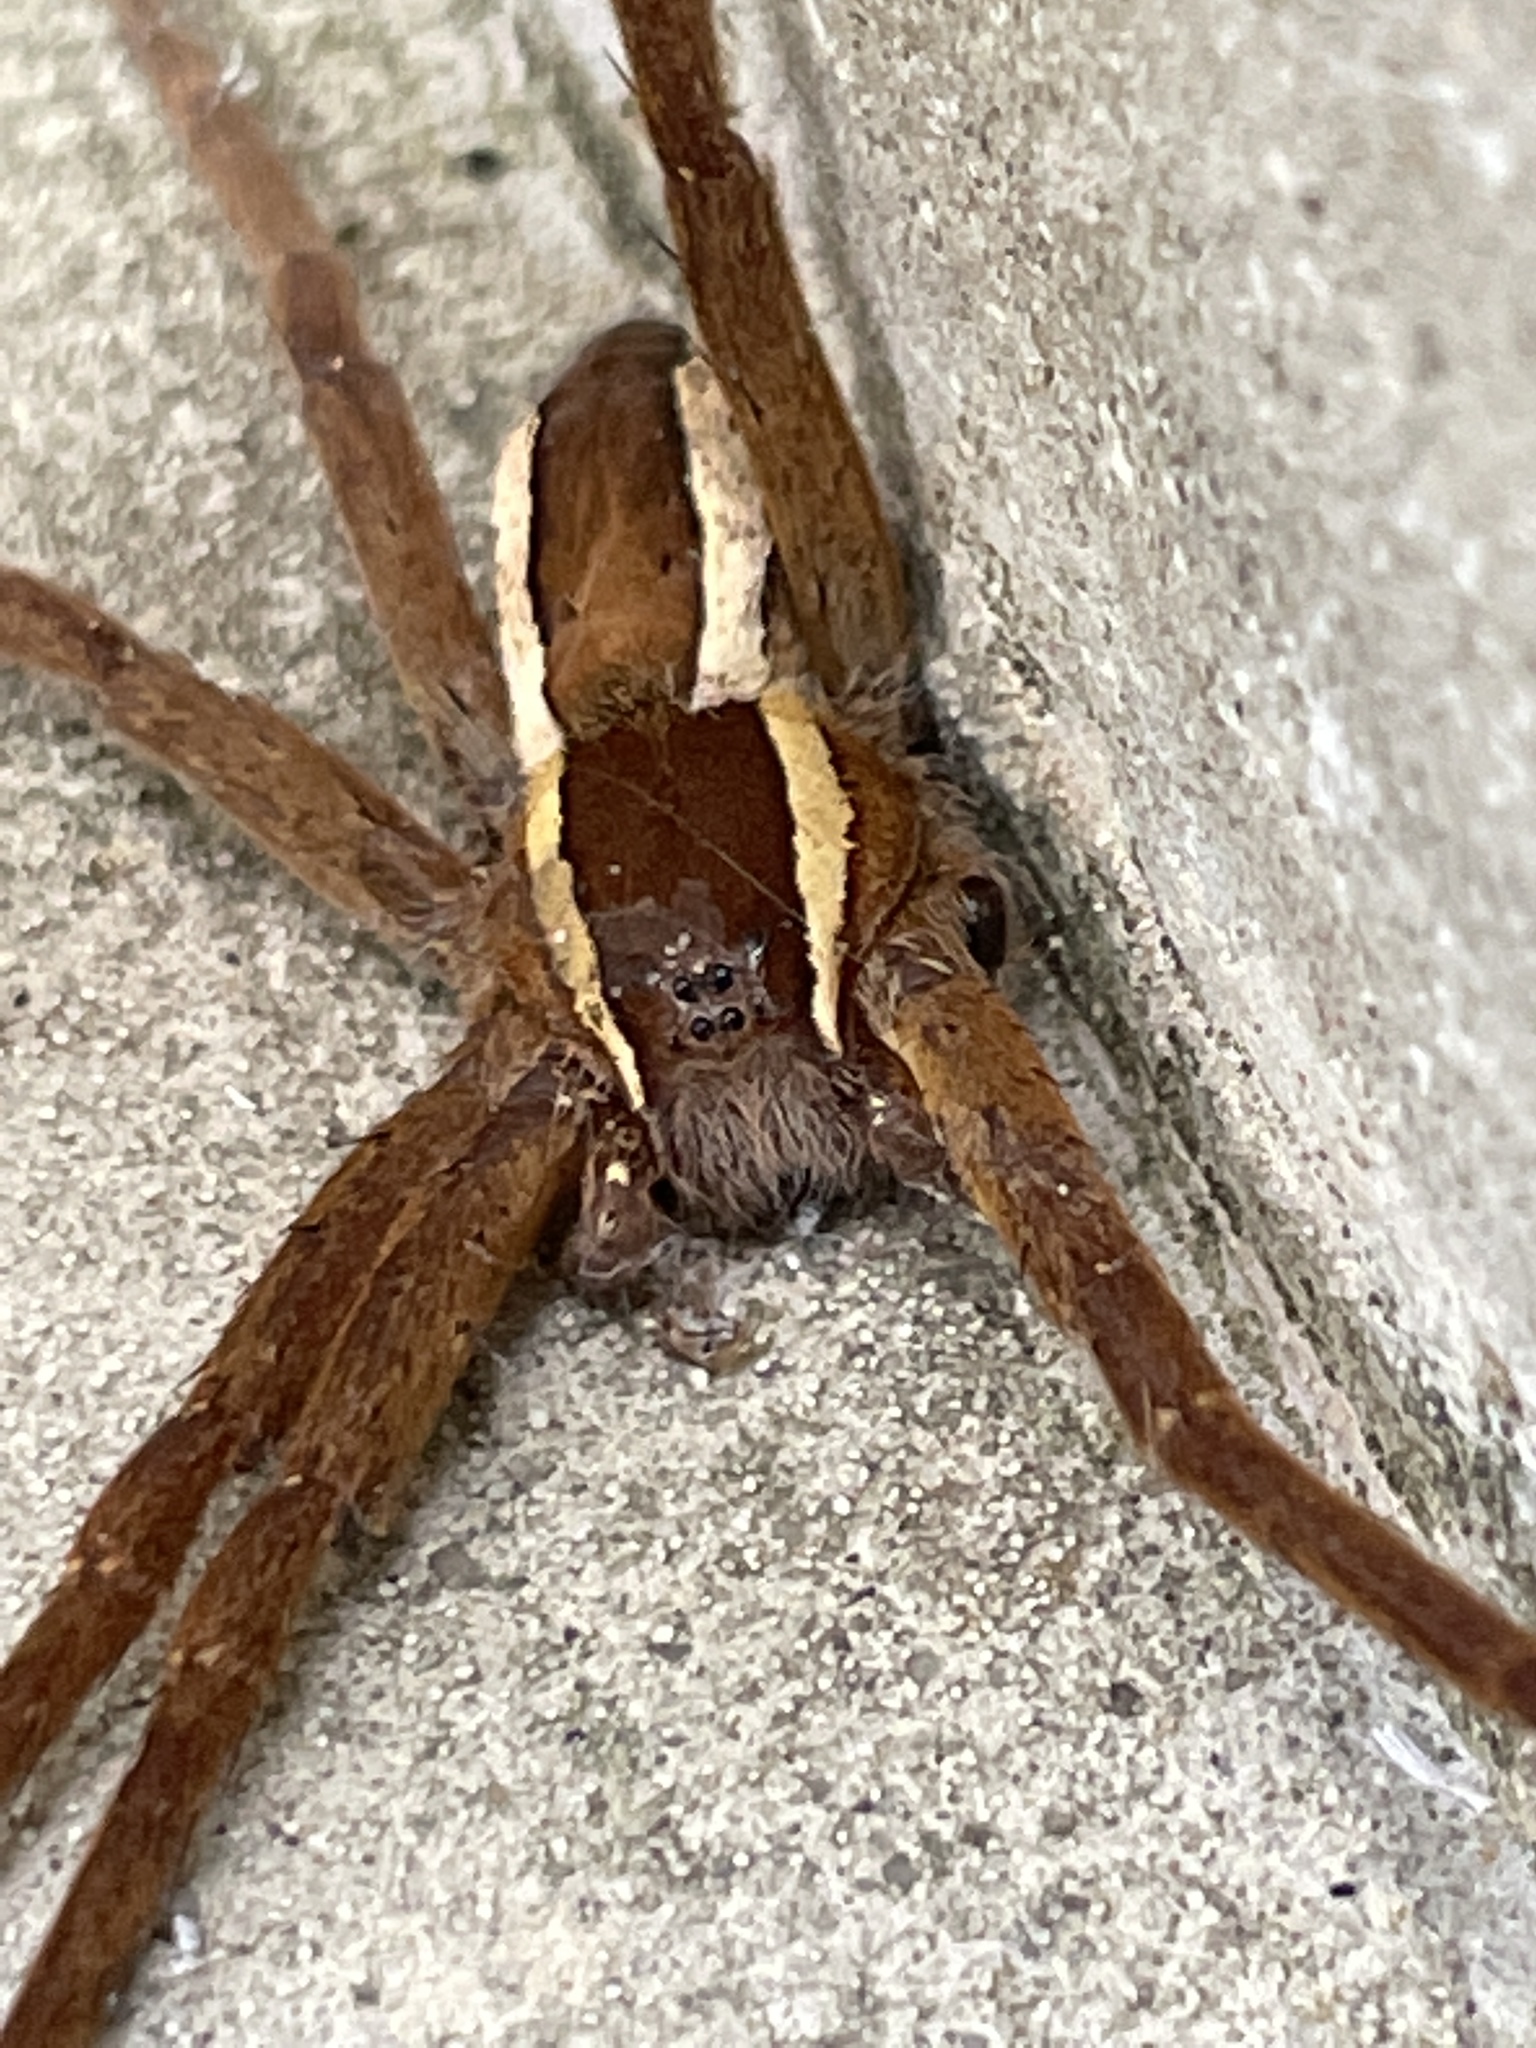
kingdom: Animalia
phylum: Arthropoda
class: Arachnida
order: Araneae
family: Pisauridae
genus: Pisaurina
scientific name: Pisaurina brevipes
